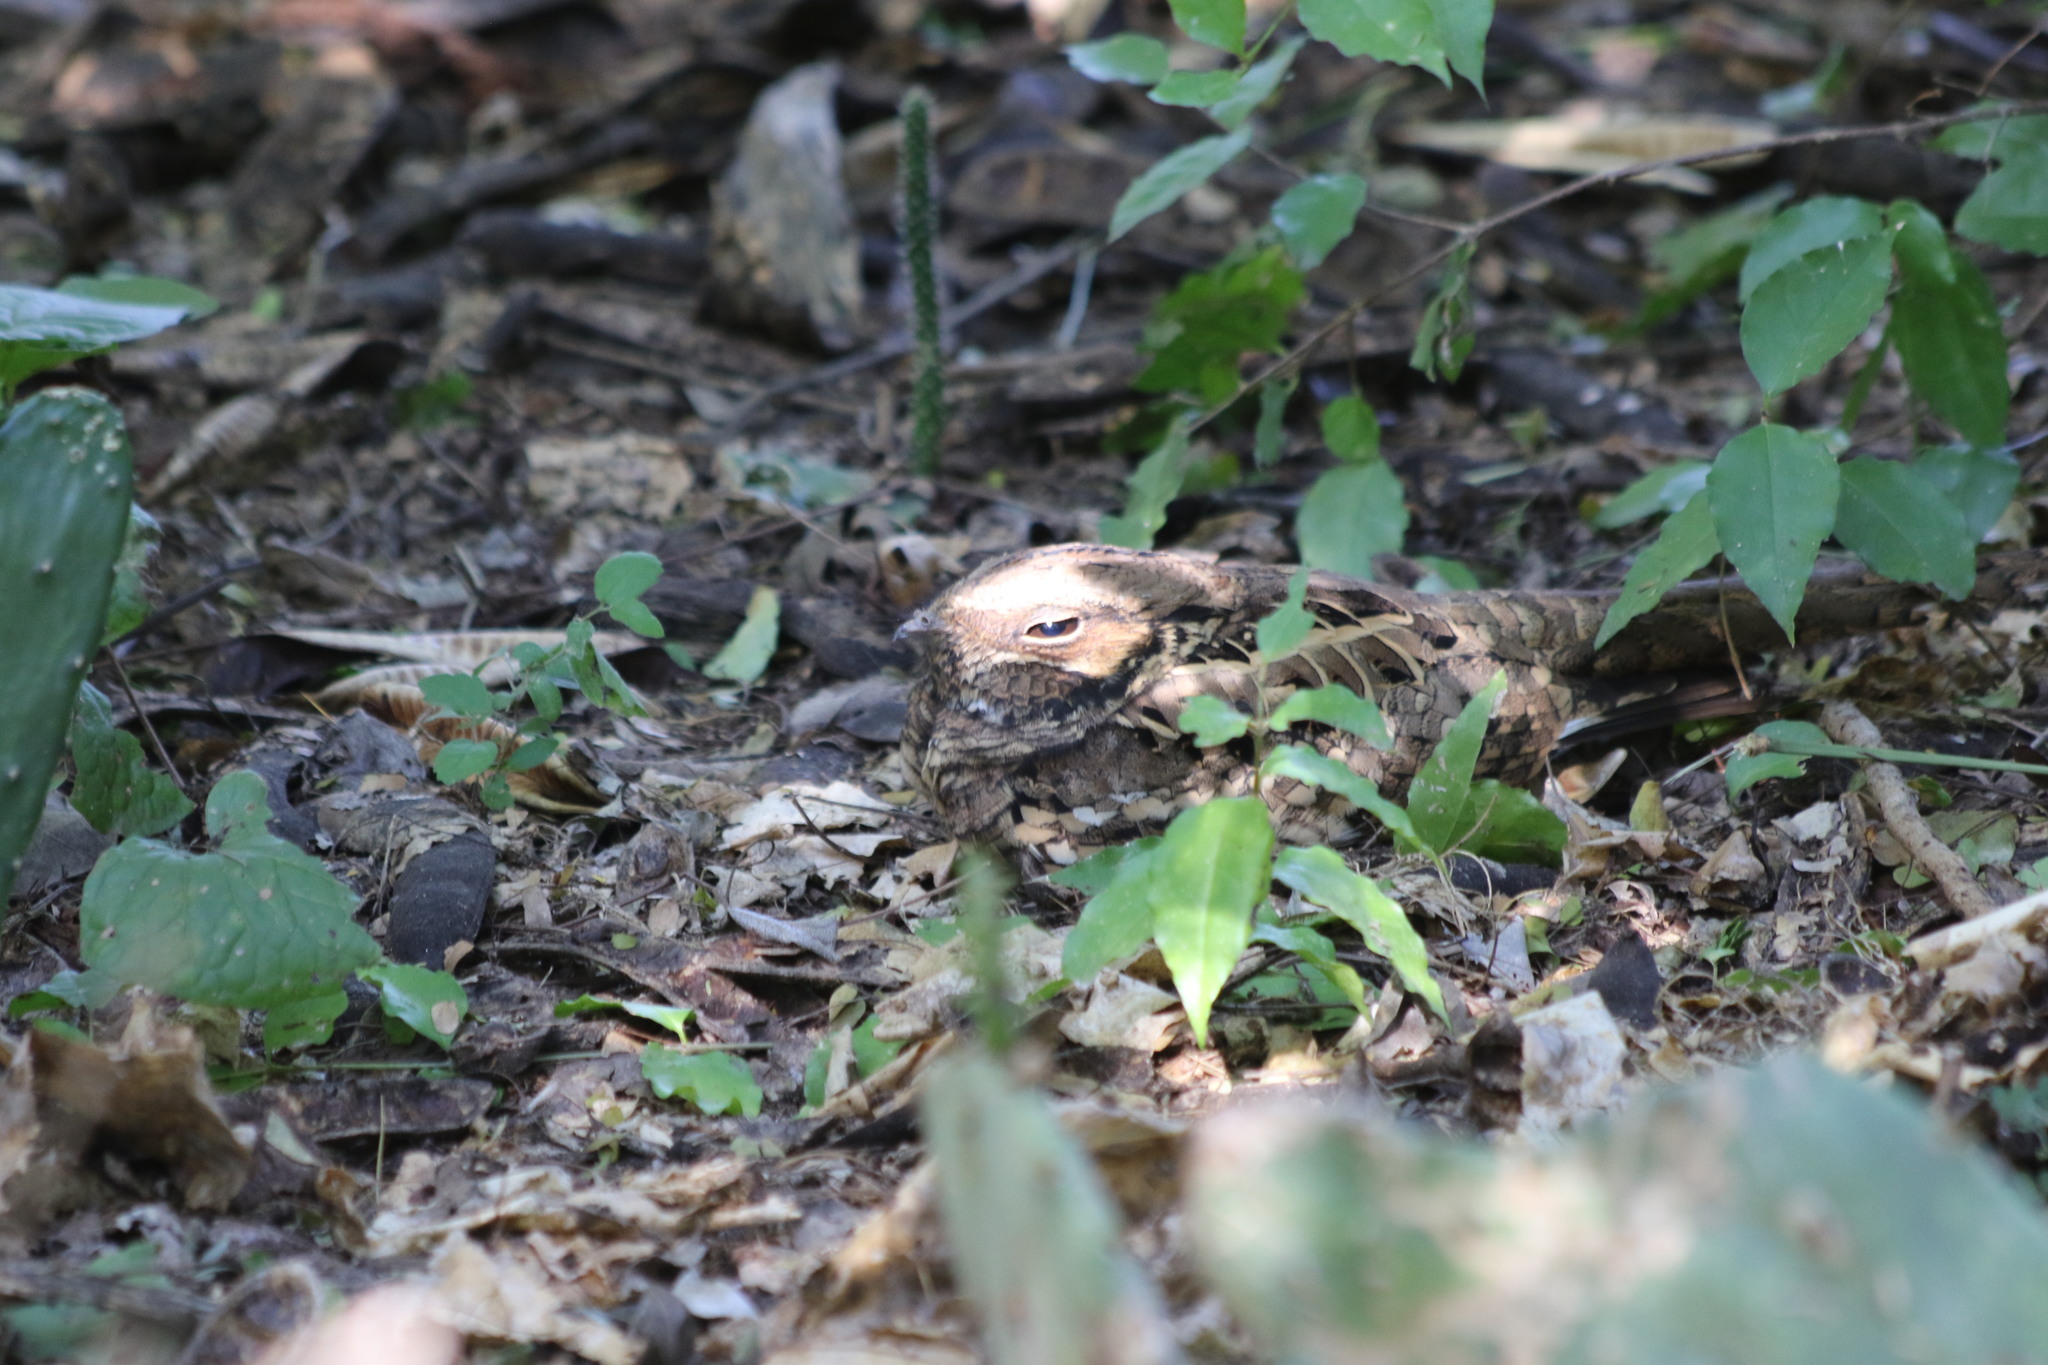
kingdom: Animalia
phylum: Chordata
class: Aves
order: Caprimulgiformes
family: Caprimulgidae
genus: Nyctidromus
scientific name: Nyctidromus albicollis
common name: Pauraque
